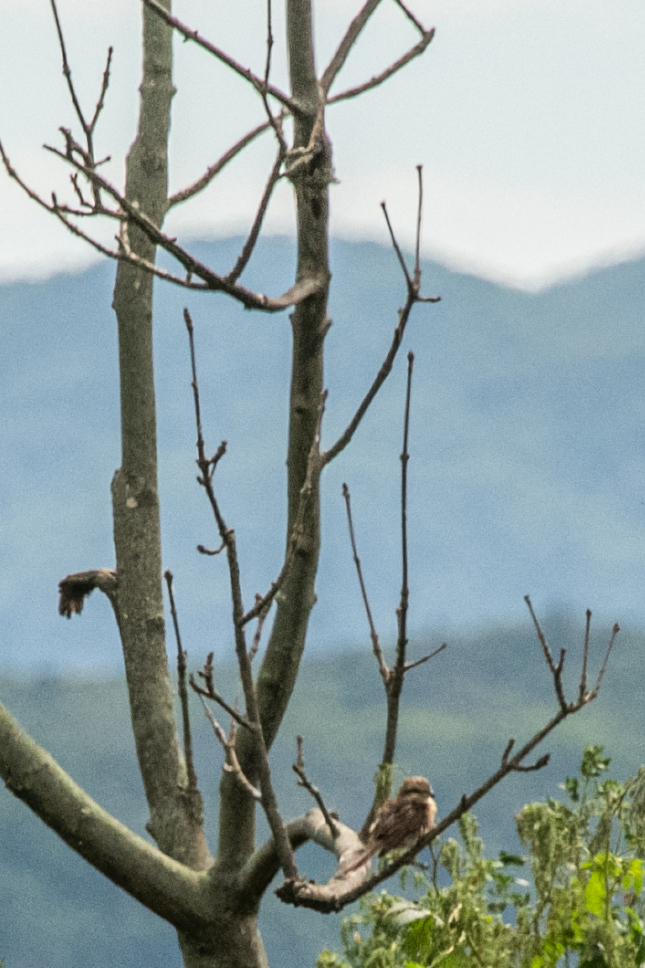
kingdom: Animalia
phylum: Chordata
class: Aves
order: Passeriformes
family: Laniidae
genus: Lanius
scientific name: Lanius bucephalus
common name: Bull-headed shrike
